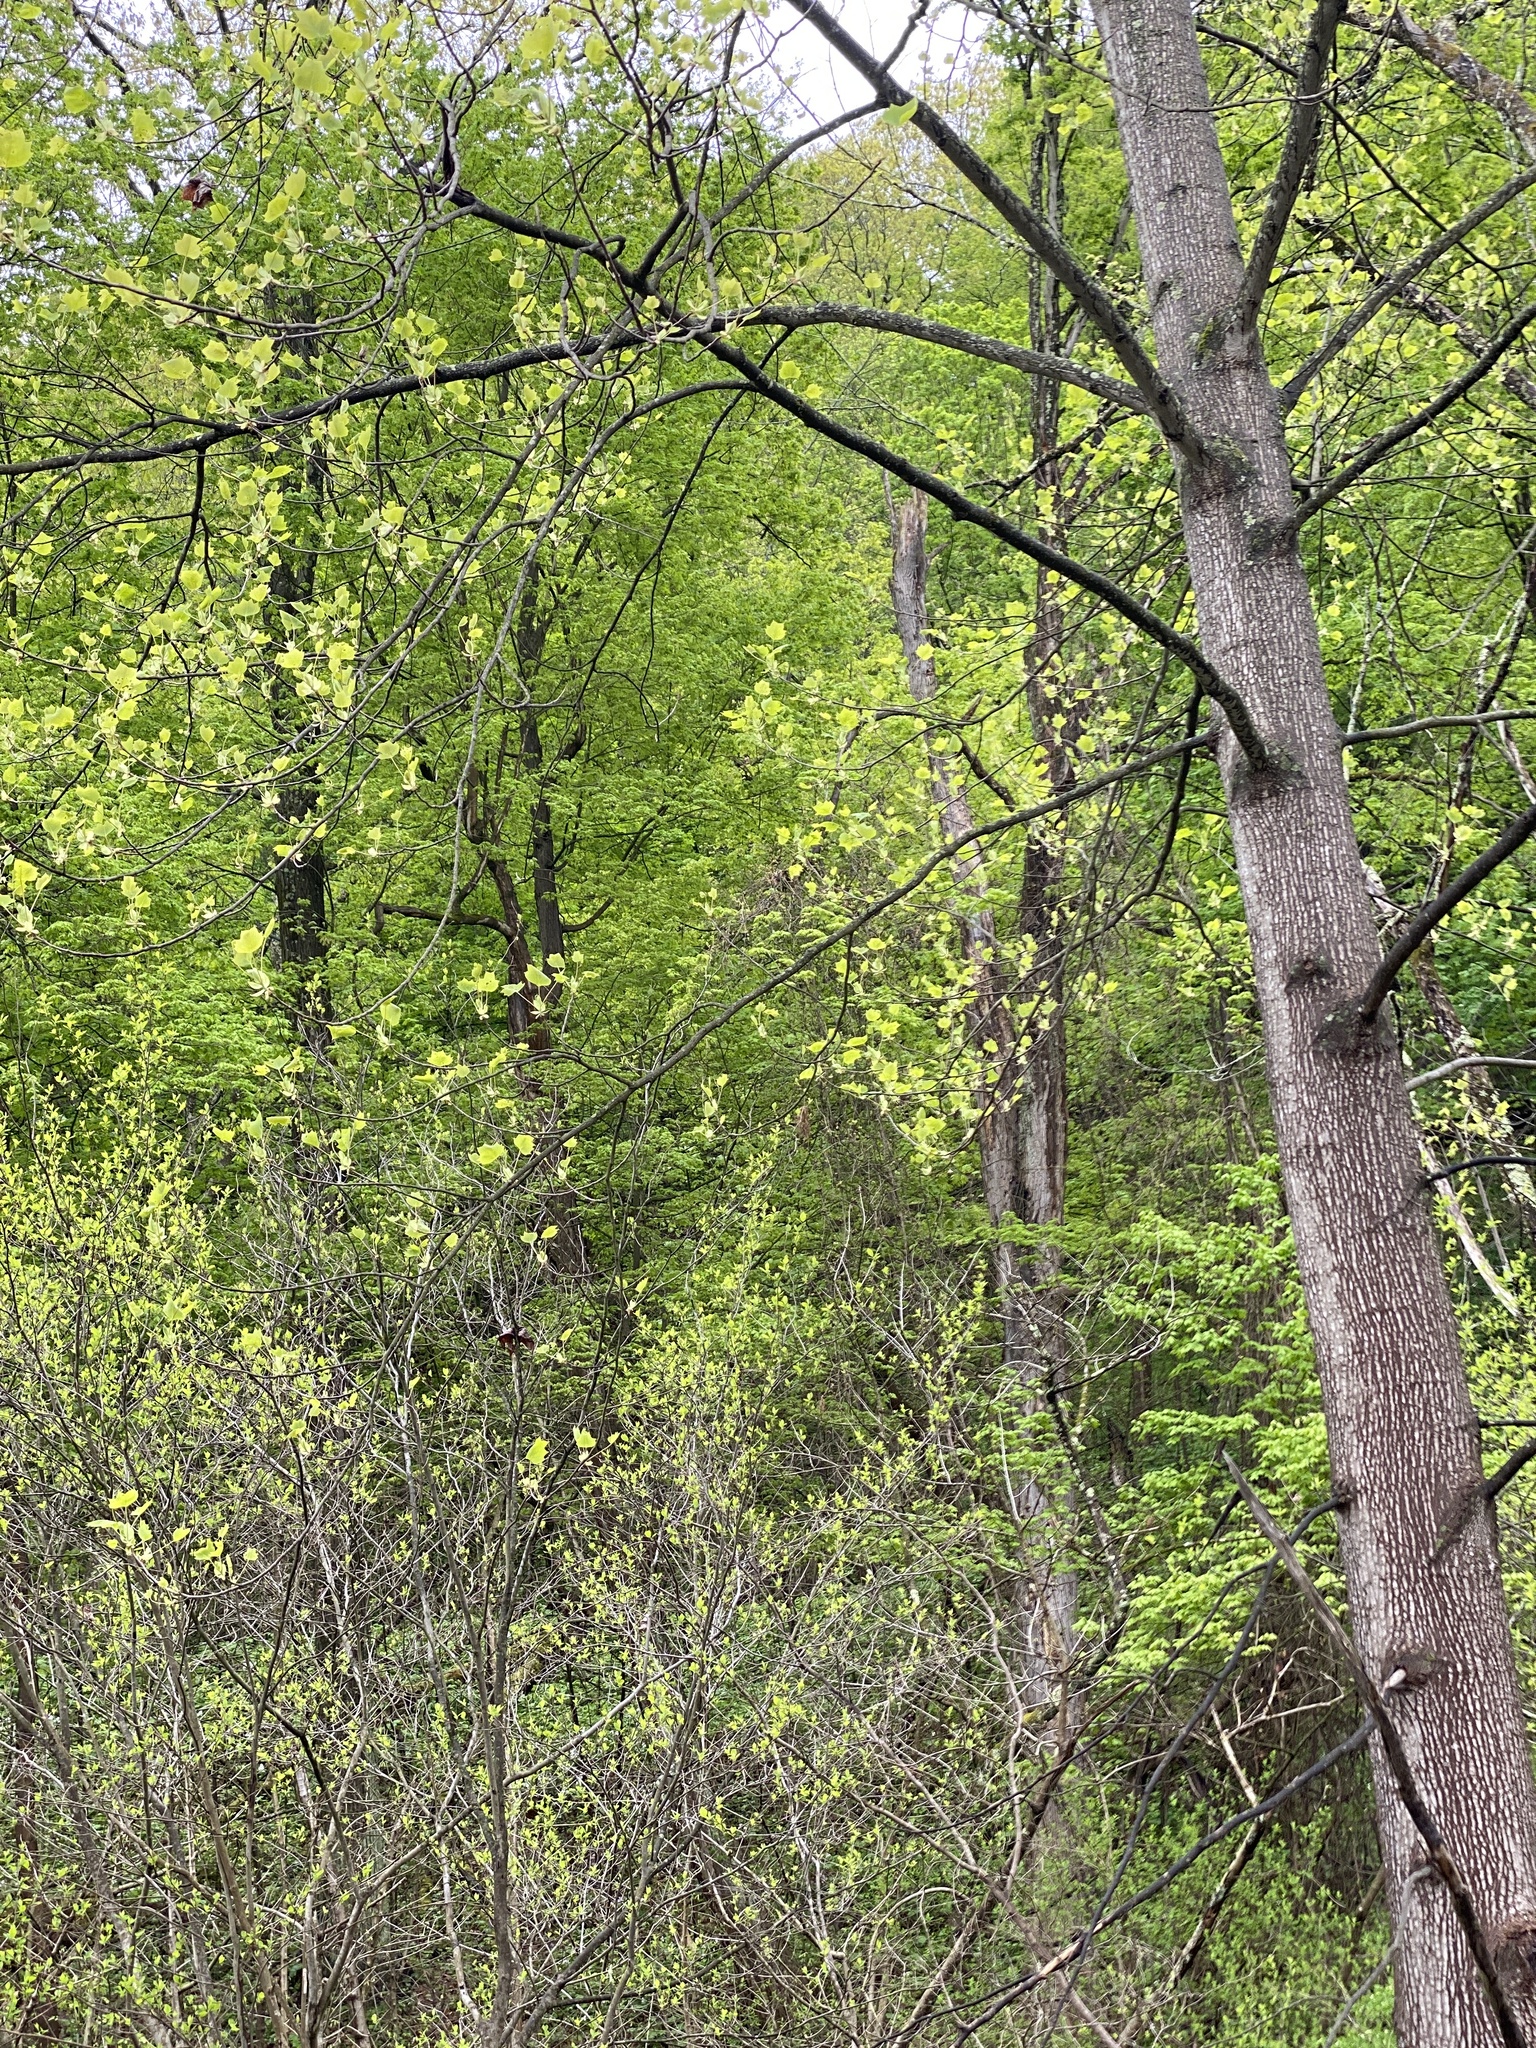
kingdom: Plantae
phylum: Tracheophyta
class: Magnoliopsida
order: Magnoliales
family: Magnoliaceae
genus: Liriodendron
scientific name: Liriodendron tulipifera
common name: Tulip tree
